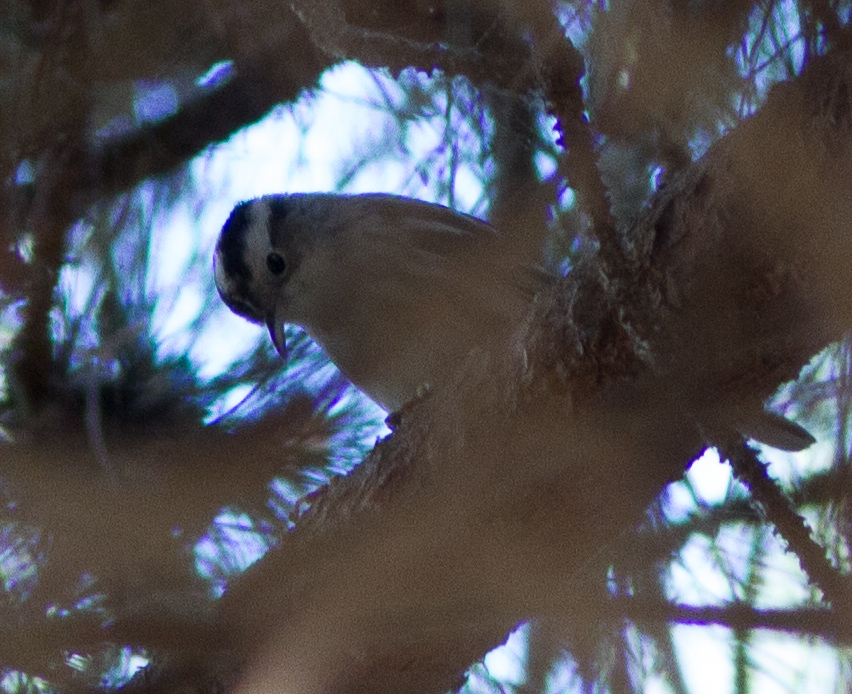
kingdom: Animalia
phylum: Chordata
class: Aves
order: Passeriformes
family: Parulidae
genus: Mniotilta
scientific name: Mniotilta varia
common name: Black-and-white warbler
